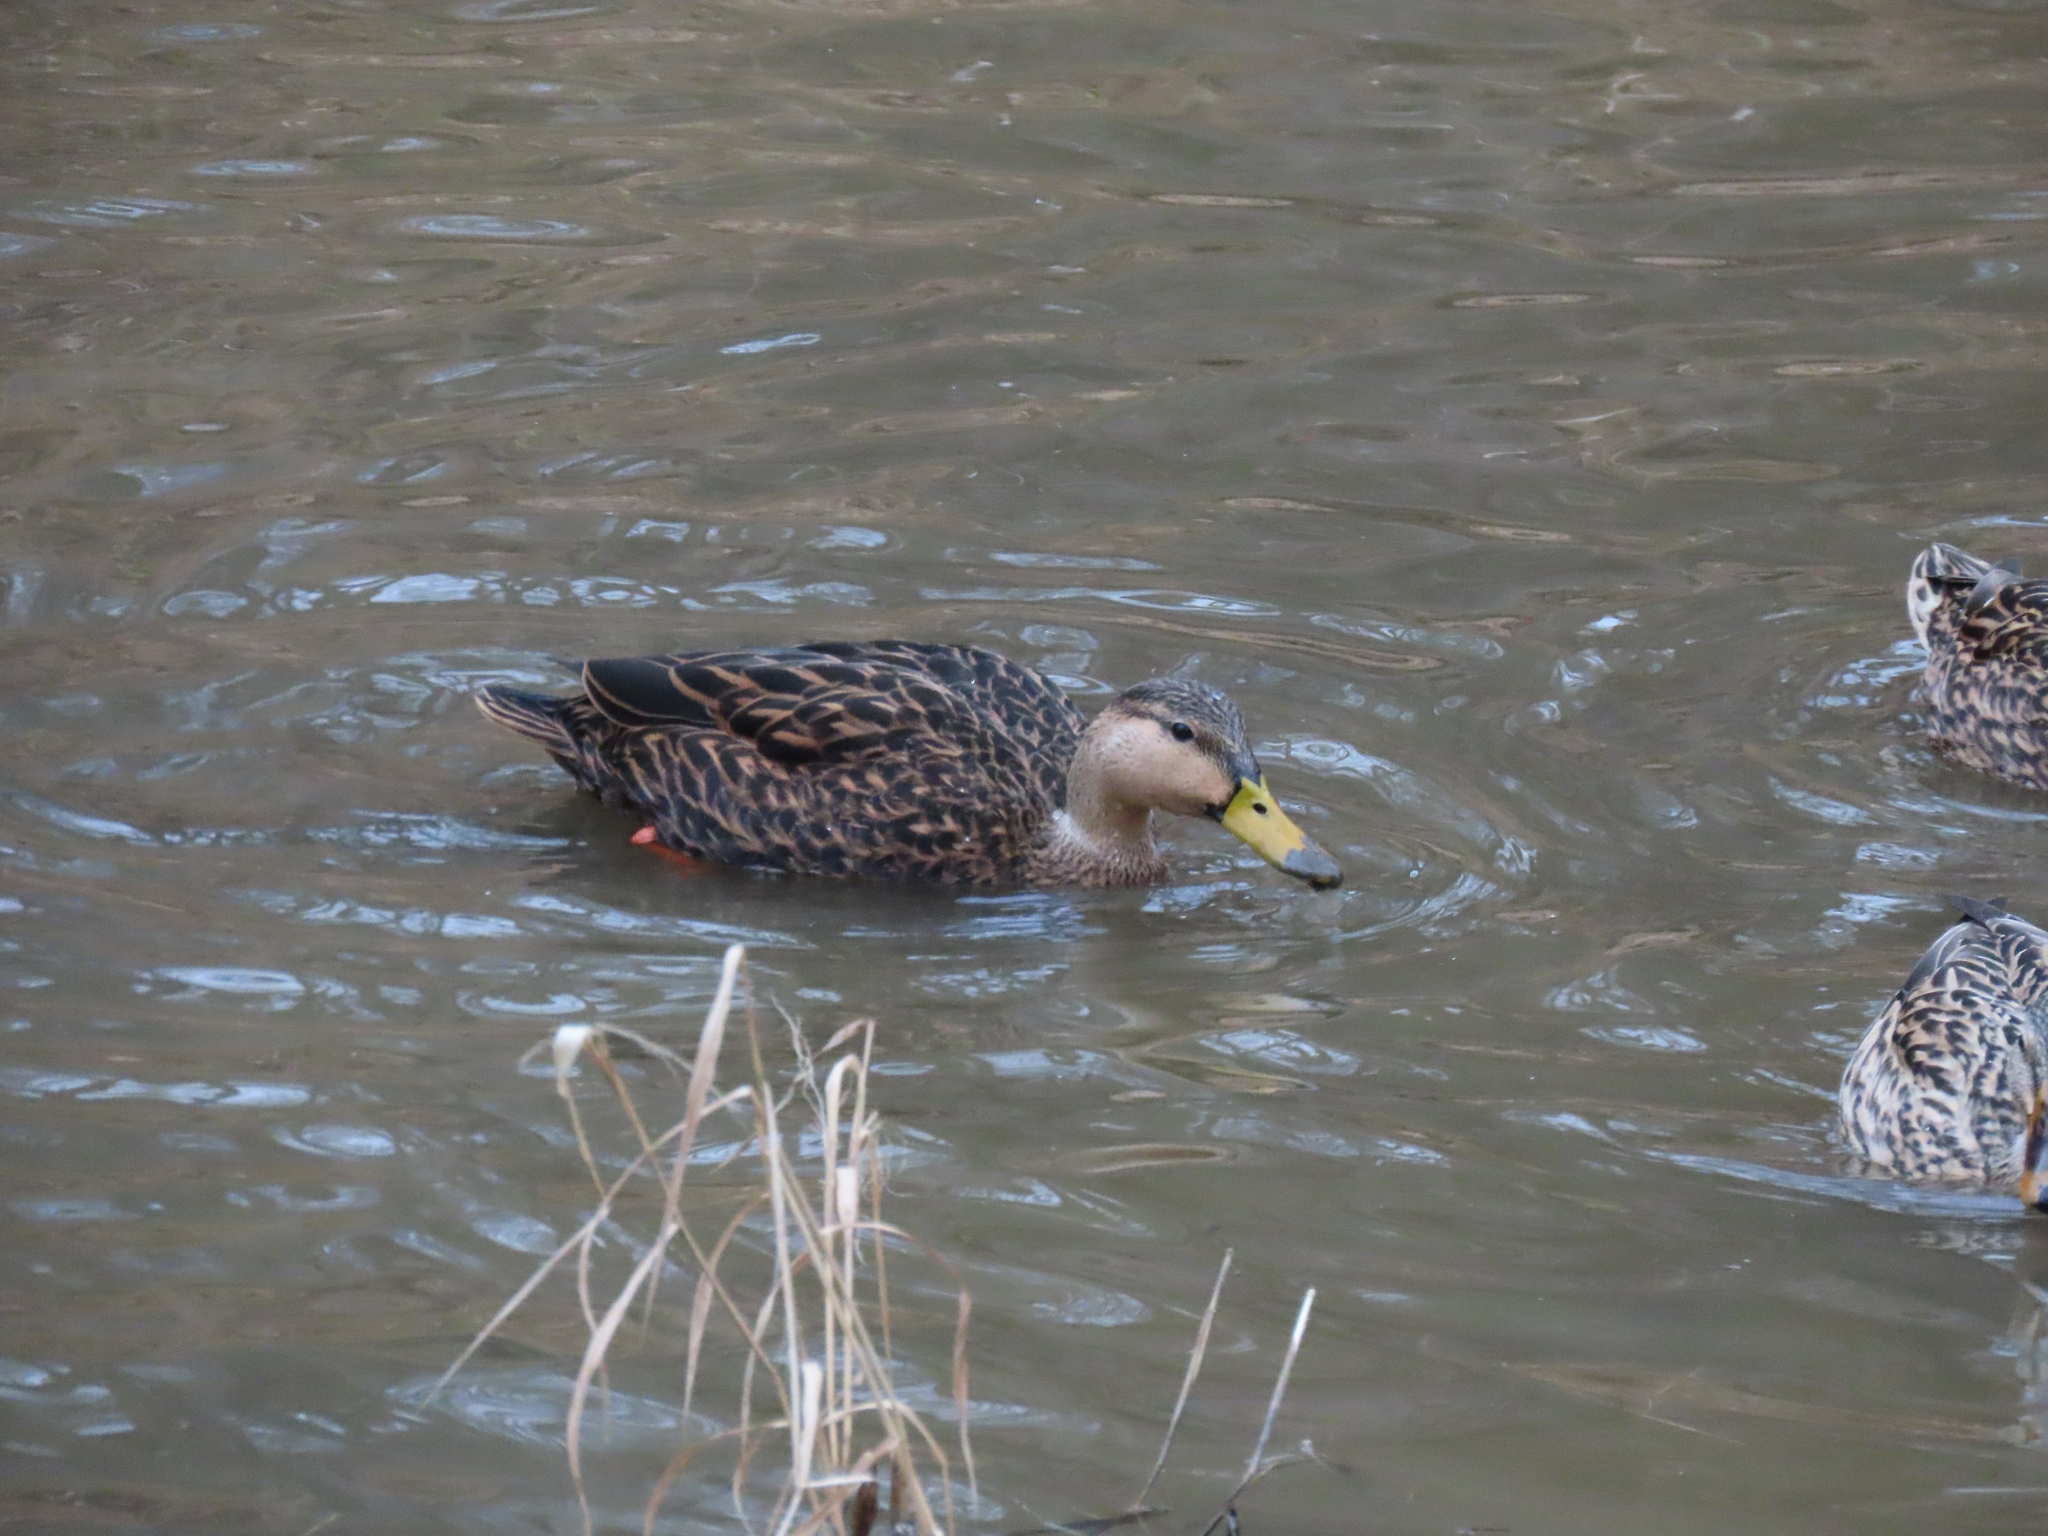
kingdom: Animalia
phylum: Chordata
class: Aves
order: Anseriformes
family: Anatidae
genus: Anas
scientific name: Anas fulvigula
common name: Mottled duck
